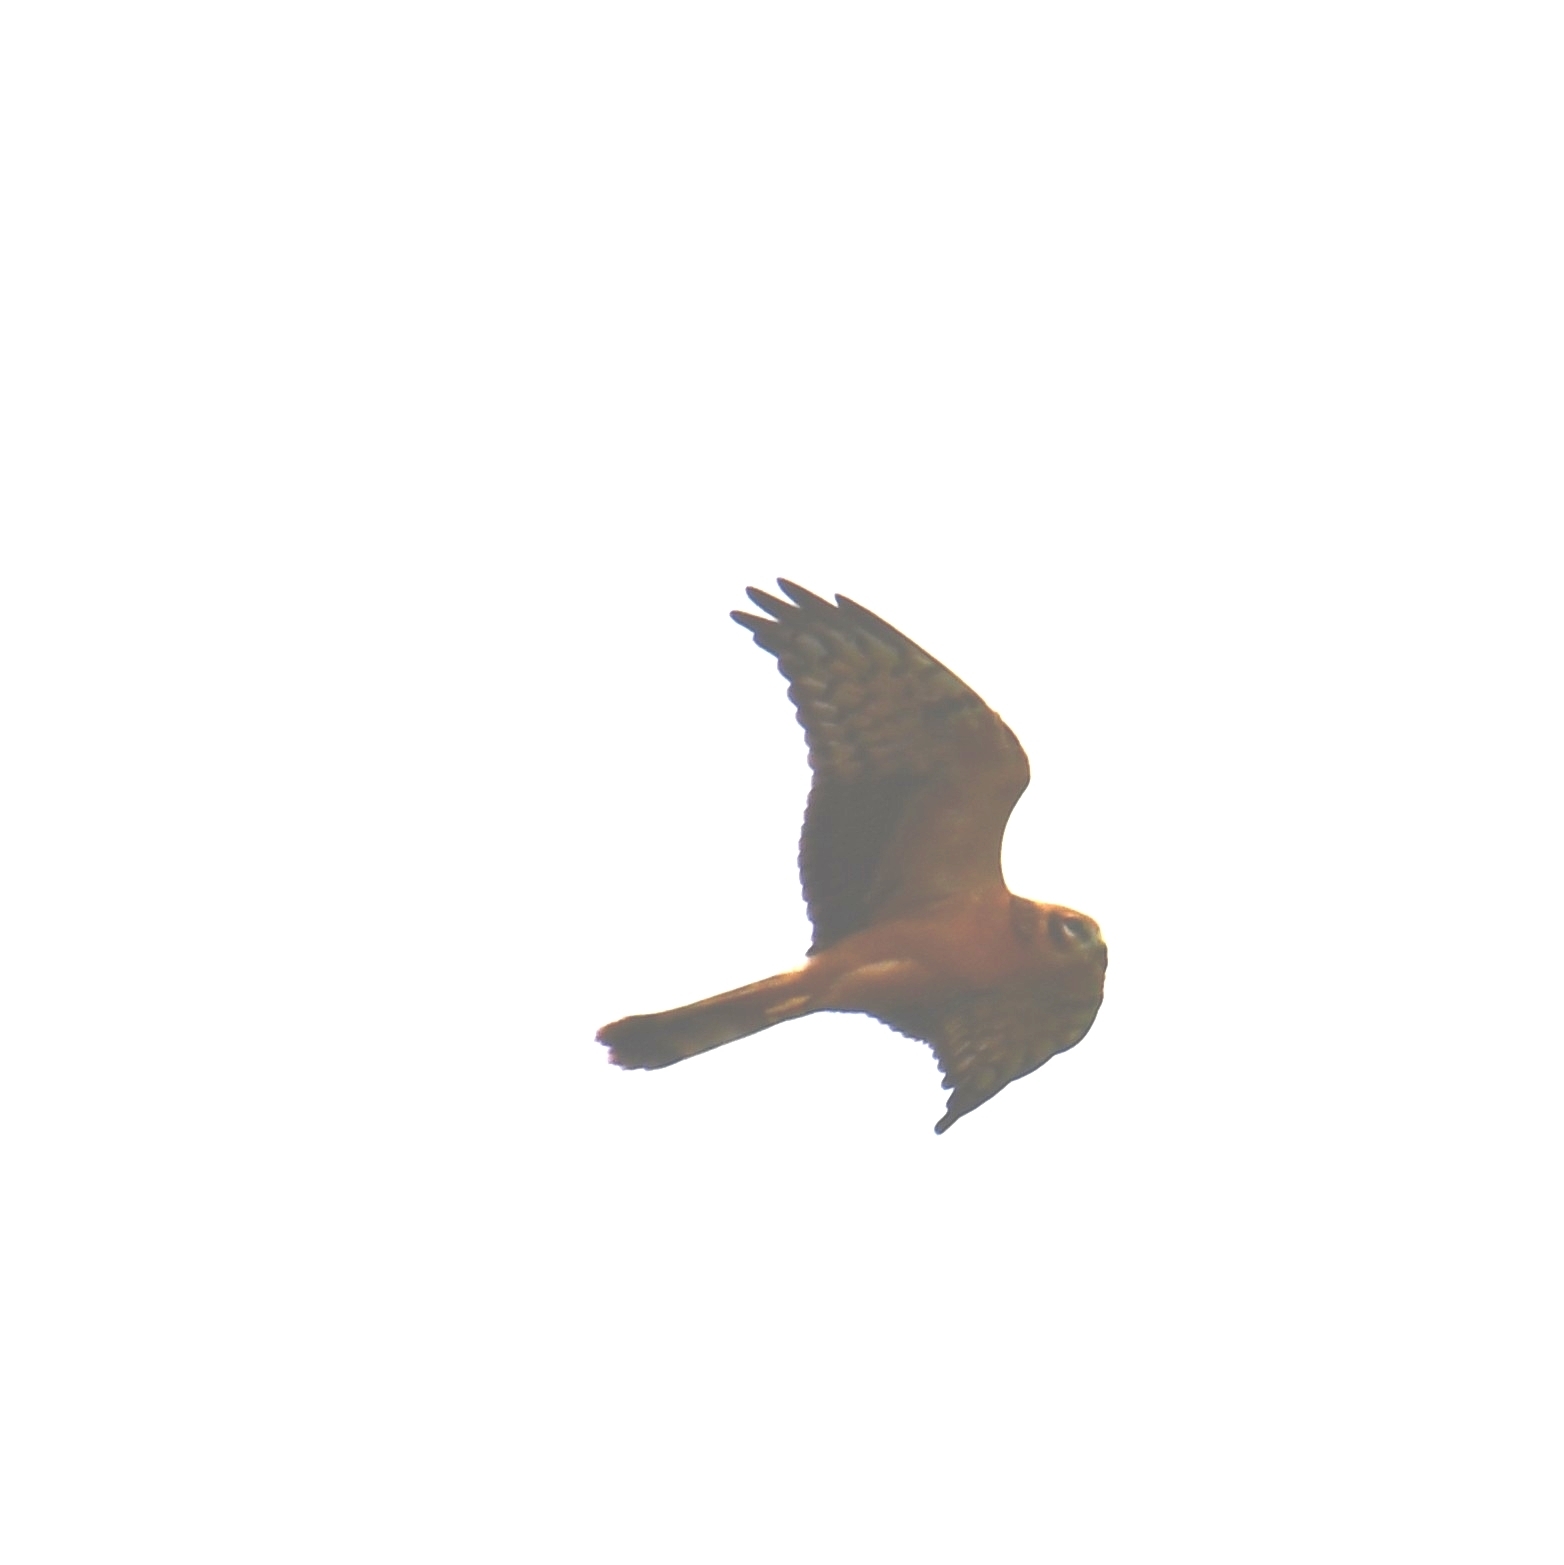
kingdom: Animalia
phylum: Chordata
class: Aves
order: Accipitriformes
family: Accipitridae
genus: Circus
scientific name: Circus macrourus
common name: Pallid harrier
